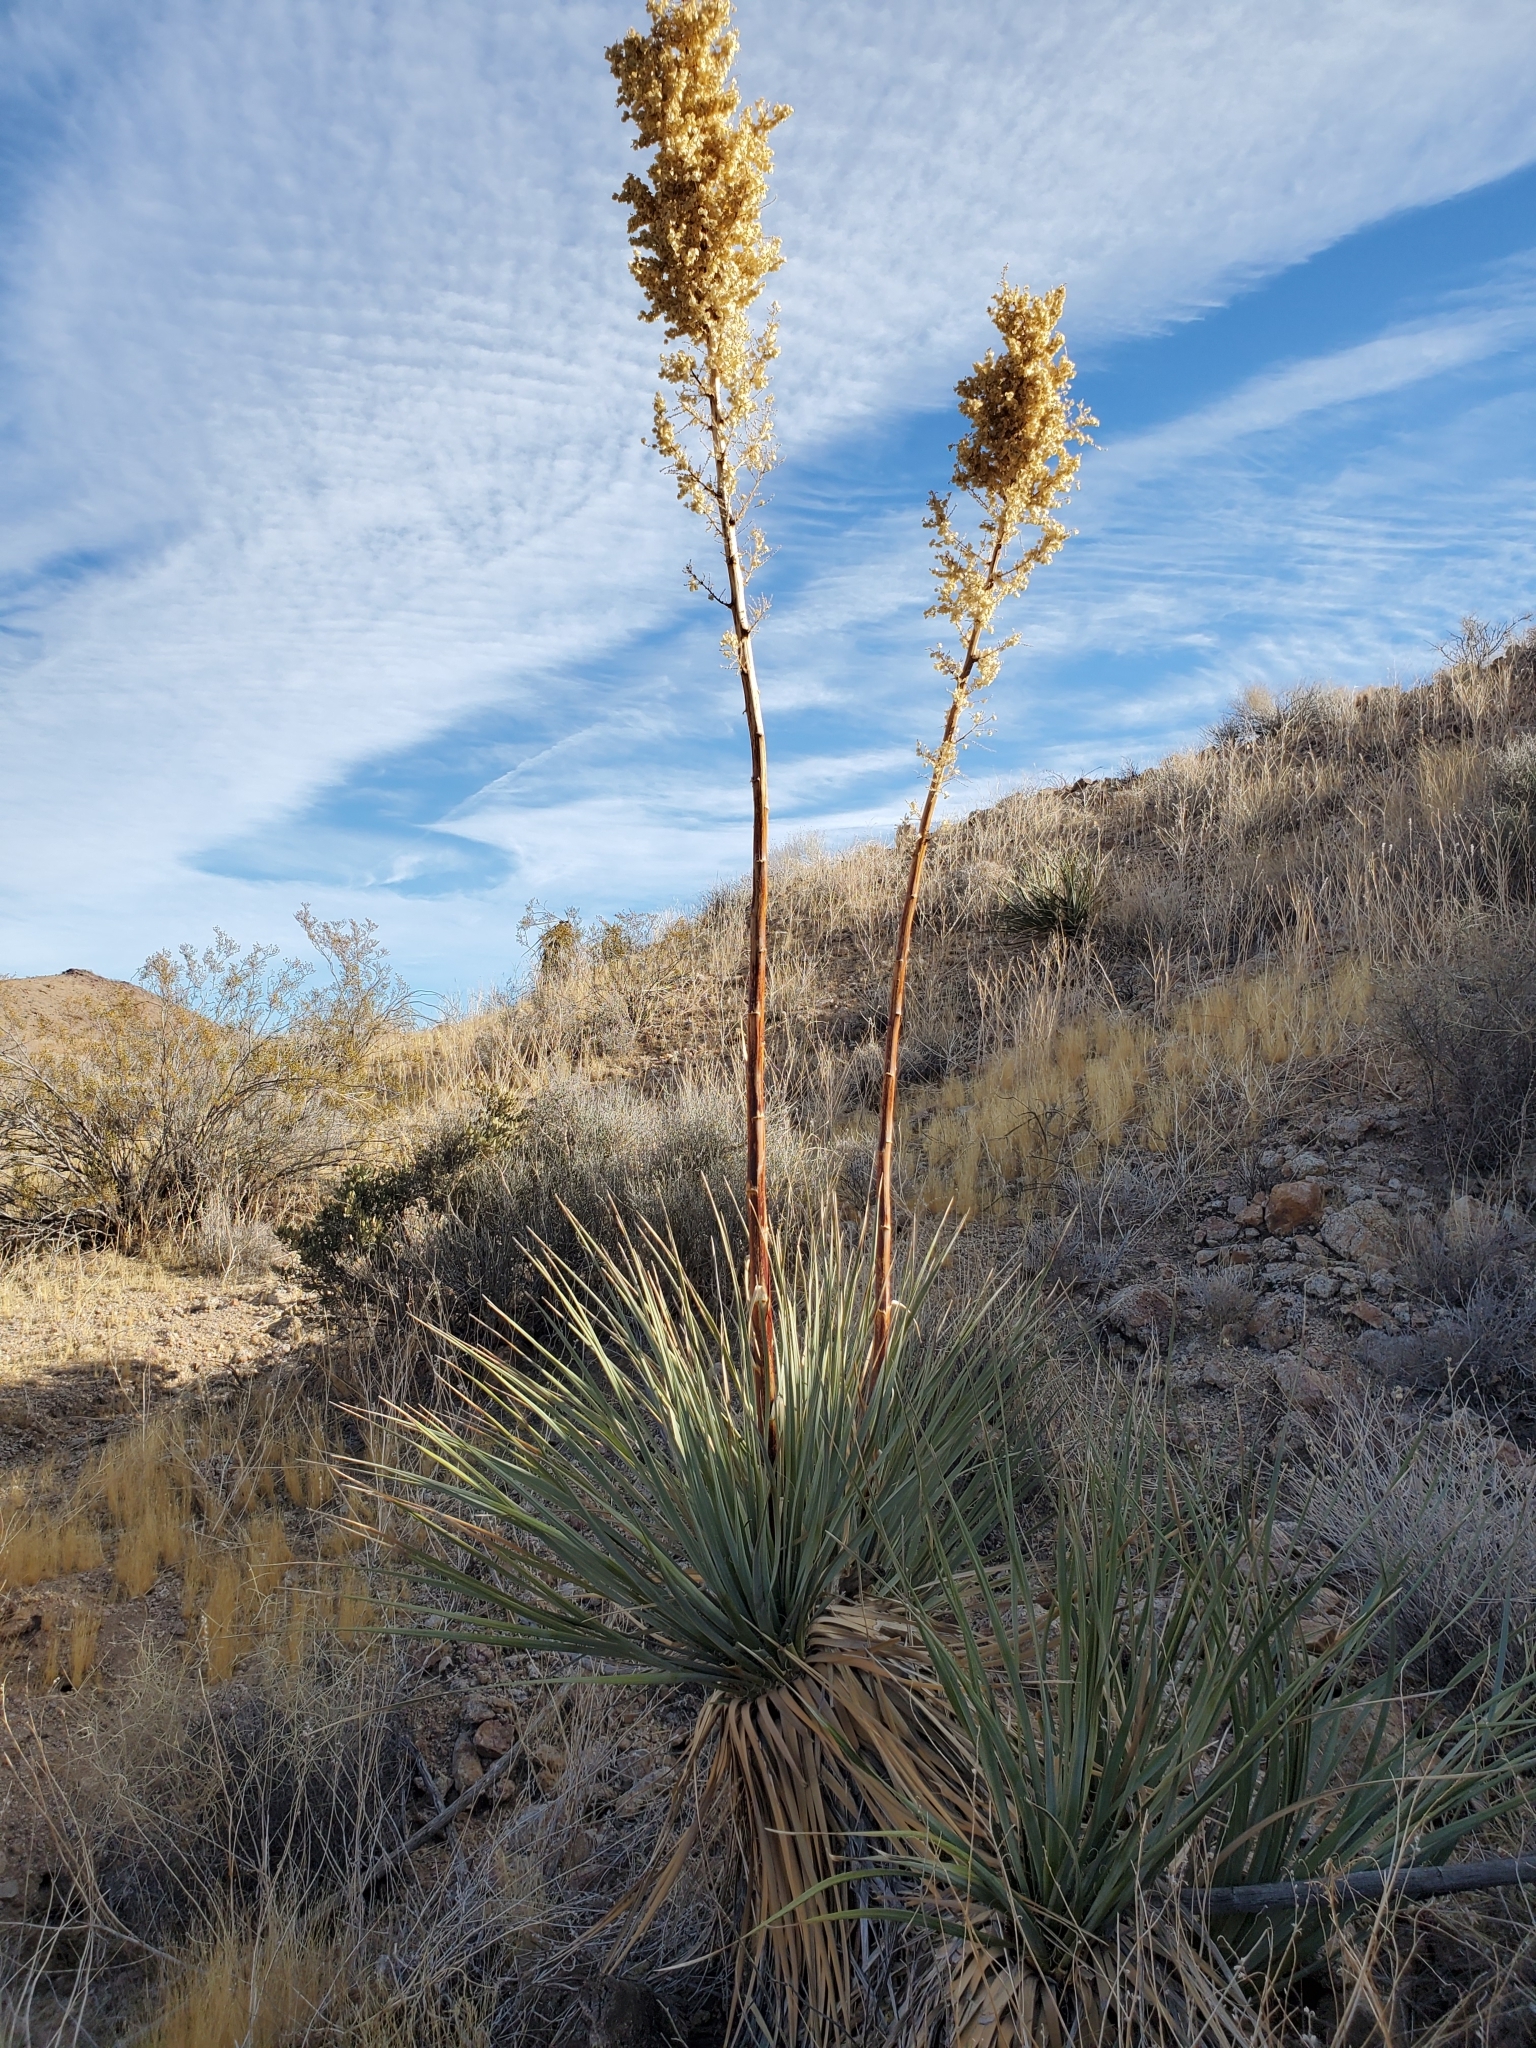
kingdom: Plantae
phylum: Tracheophyta
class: Liliopsida
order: Asparagales
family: Asparagaceae
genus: Nolina
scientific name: Nolina bigelovii
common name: Bigelow bear-grass
